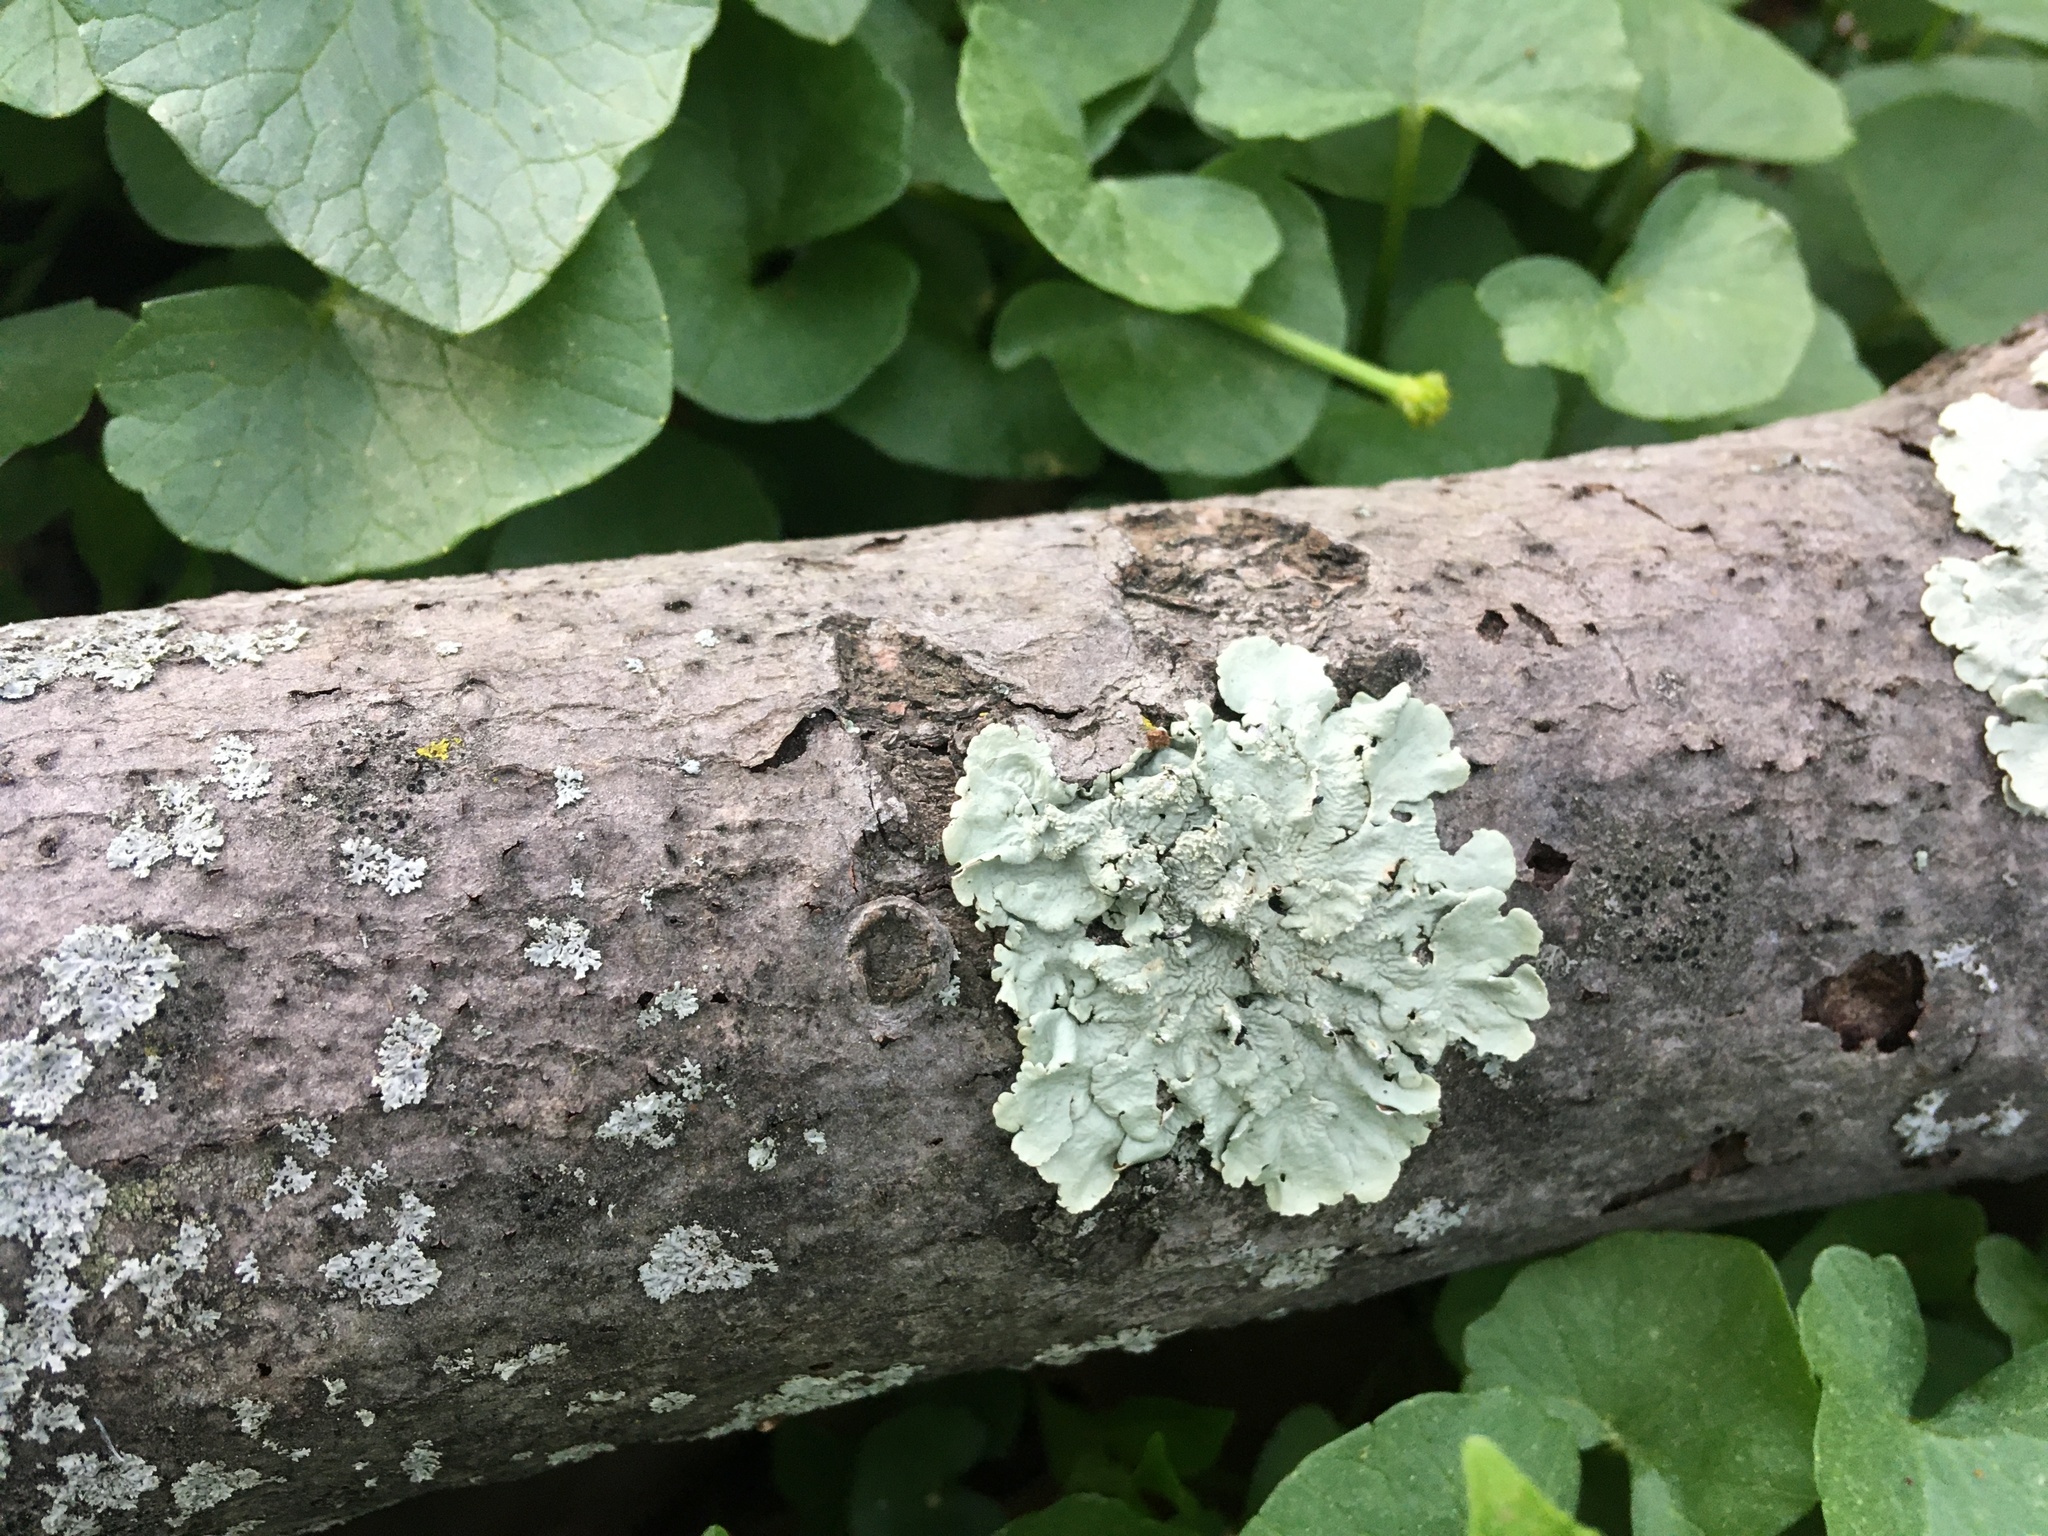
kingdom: Fungi
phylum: Ascomycota
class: Lecanoromycetes
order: Lecanorales
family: Parmeliaceae
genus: Flavoparmelia
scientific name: Flavoparmelia caperata
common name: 40-mile per hour lichen
